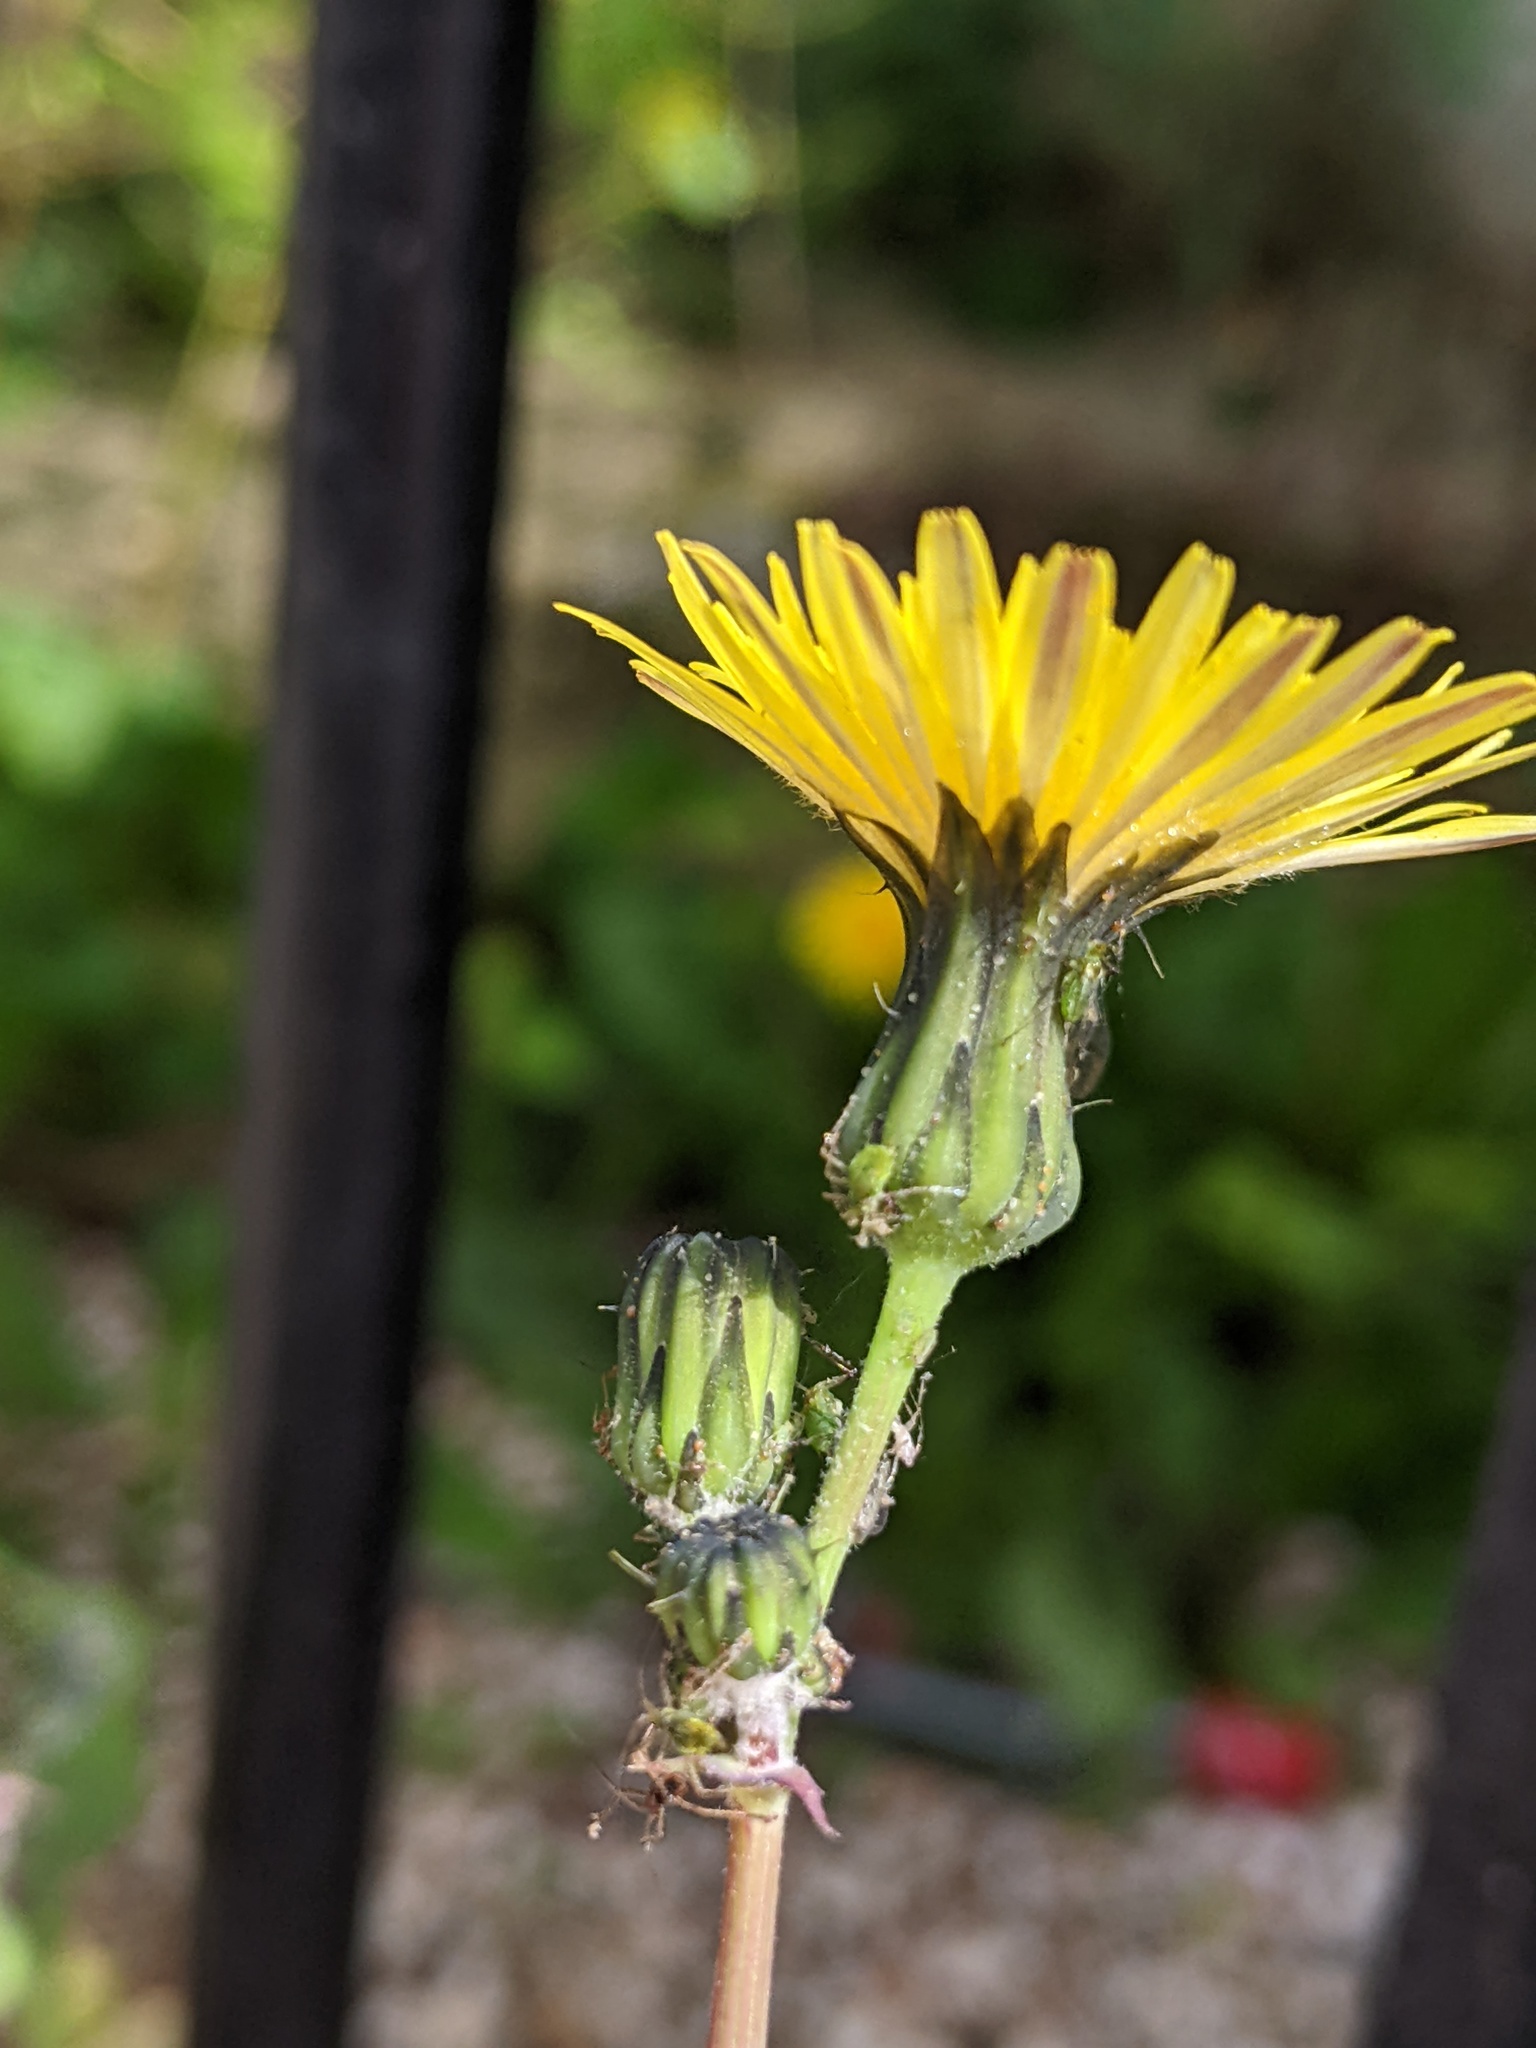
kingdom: Plantae
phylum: Tracheophyta
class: Magnoliopsida
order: Asterales
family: Asteraceae
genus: Sonchus
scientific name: Sonchus oleraceus
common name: Common sowthistle
